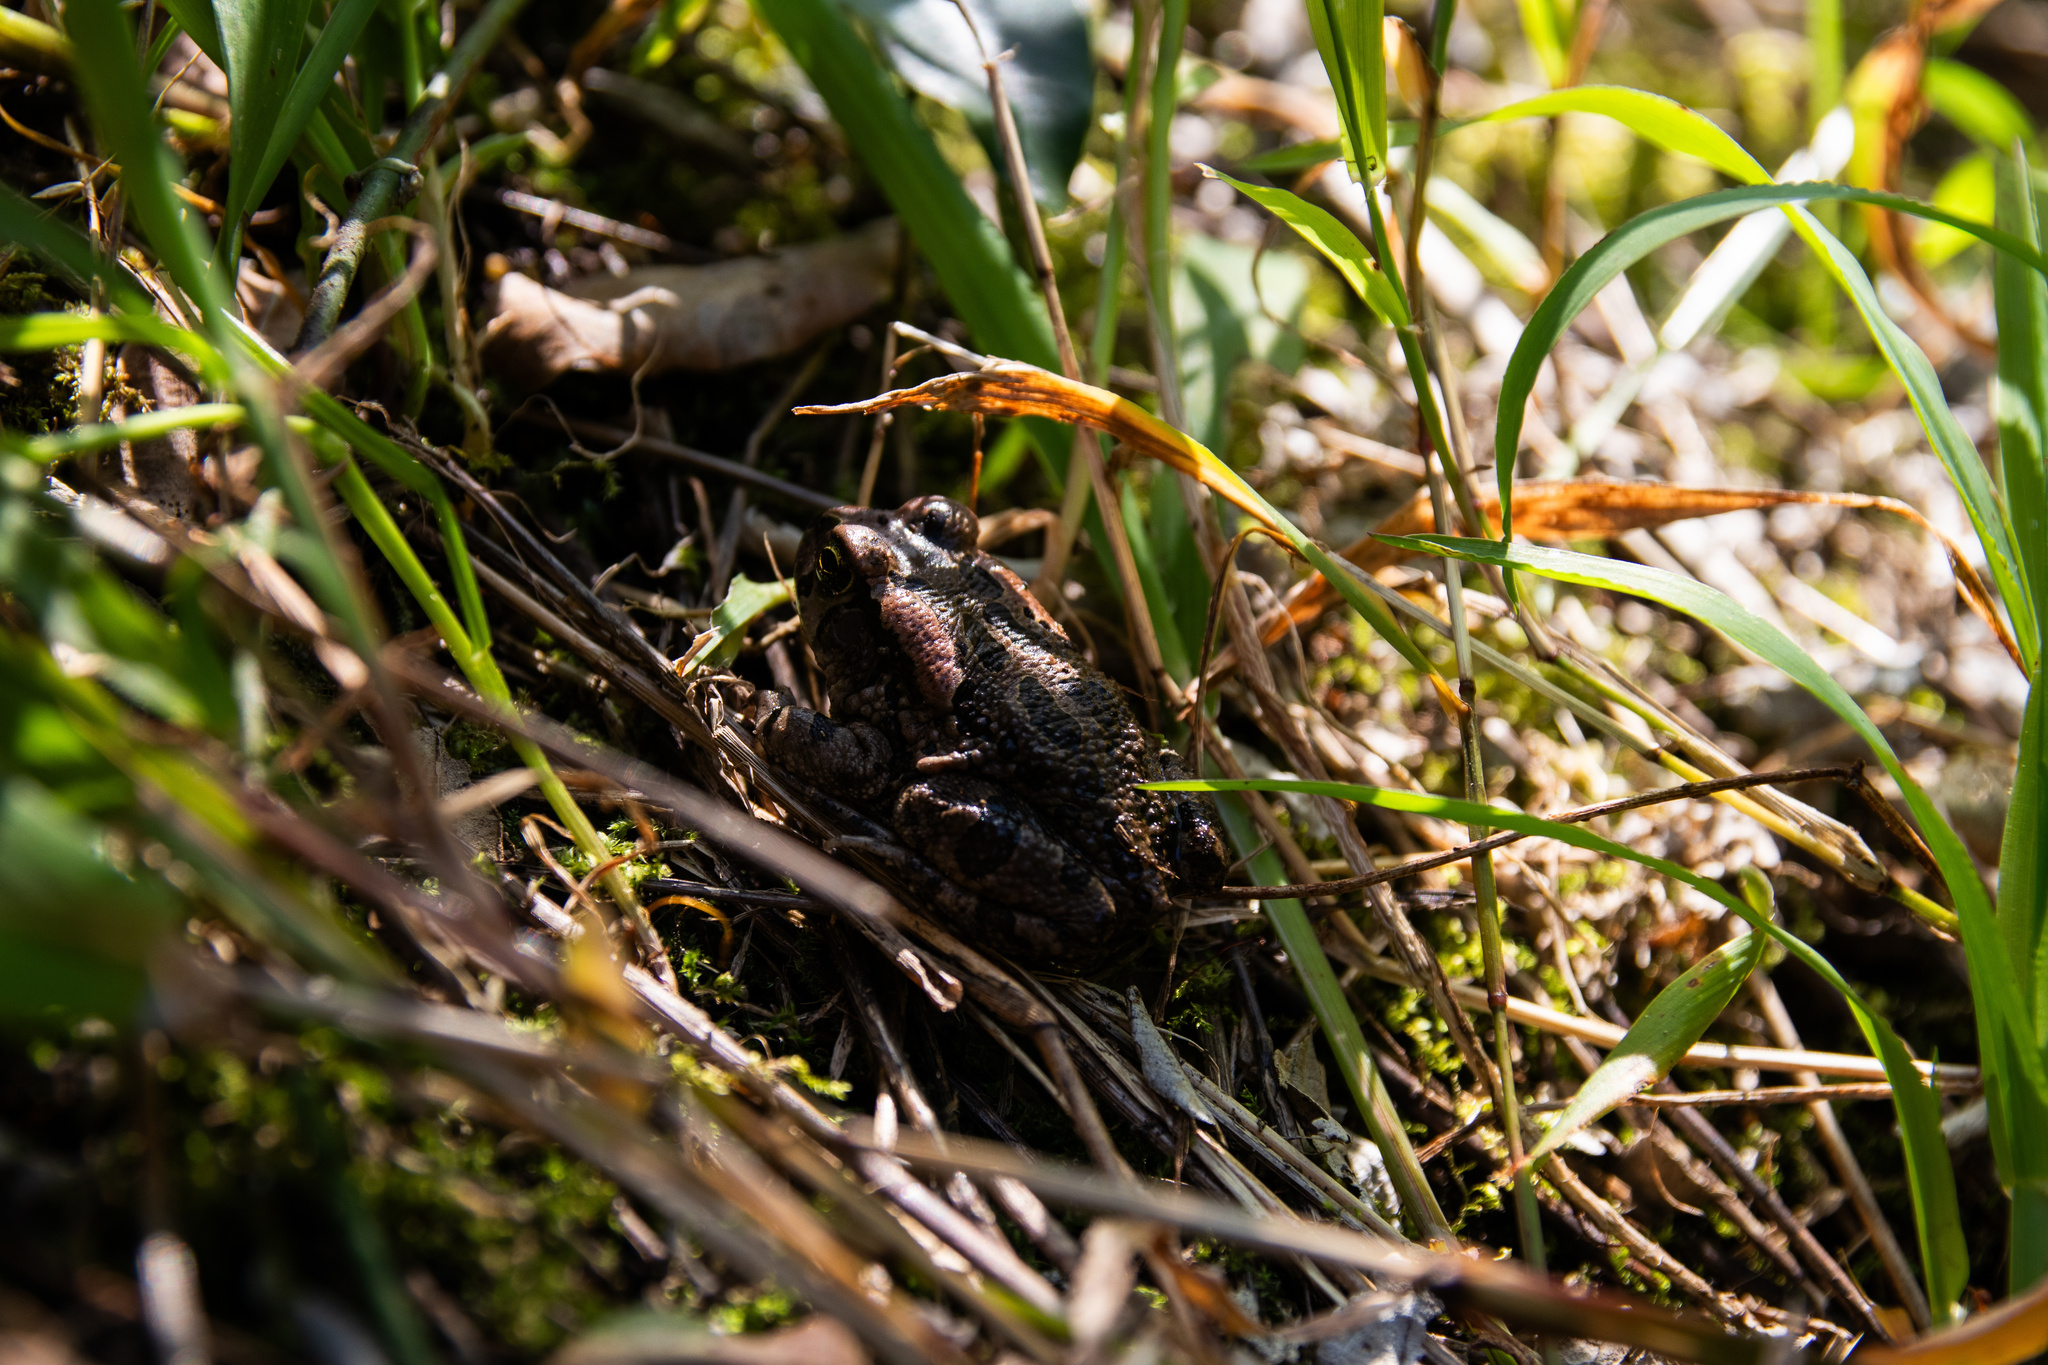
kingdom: Animalia
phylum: Chordata
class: Amphibia
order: Anura
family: Bufonidae
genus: Sclerophrys
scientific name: Sclerophrys capensis
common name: Ranger’s toad
